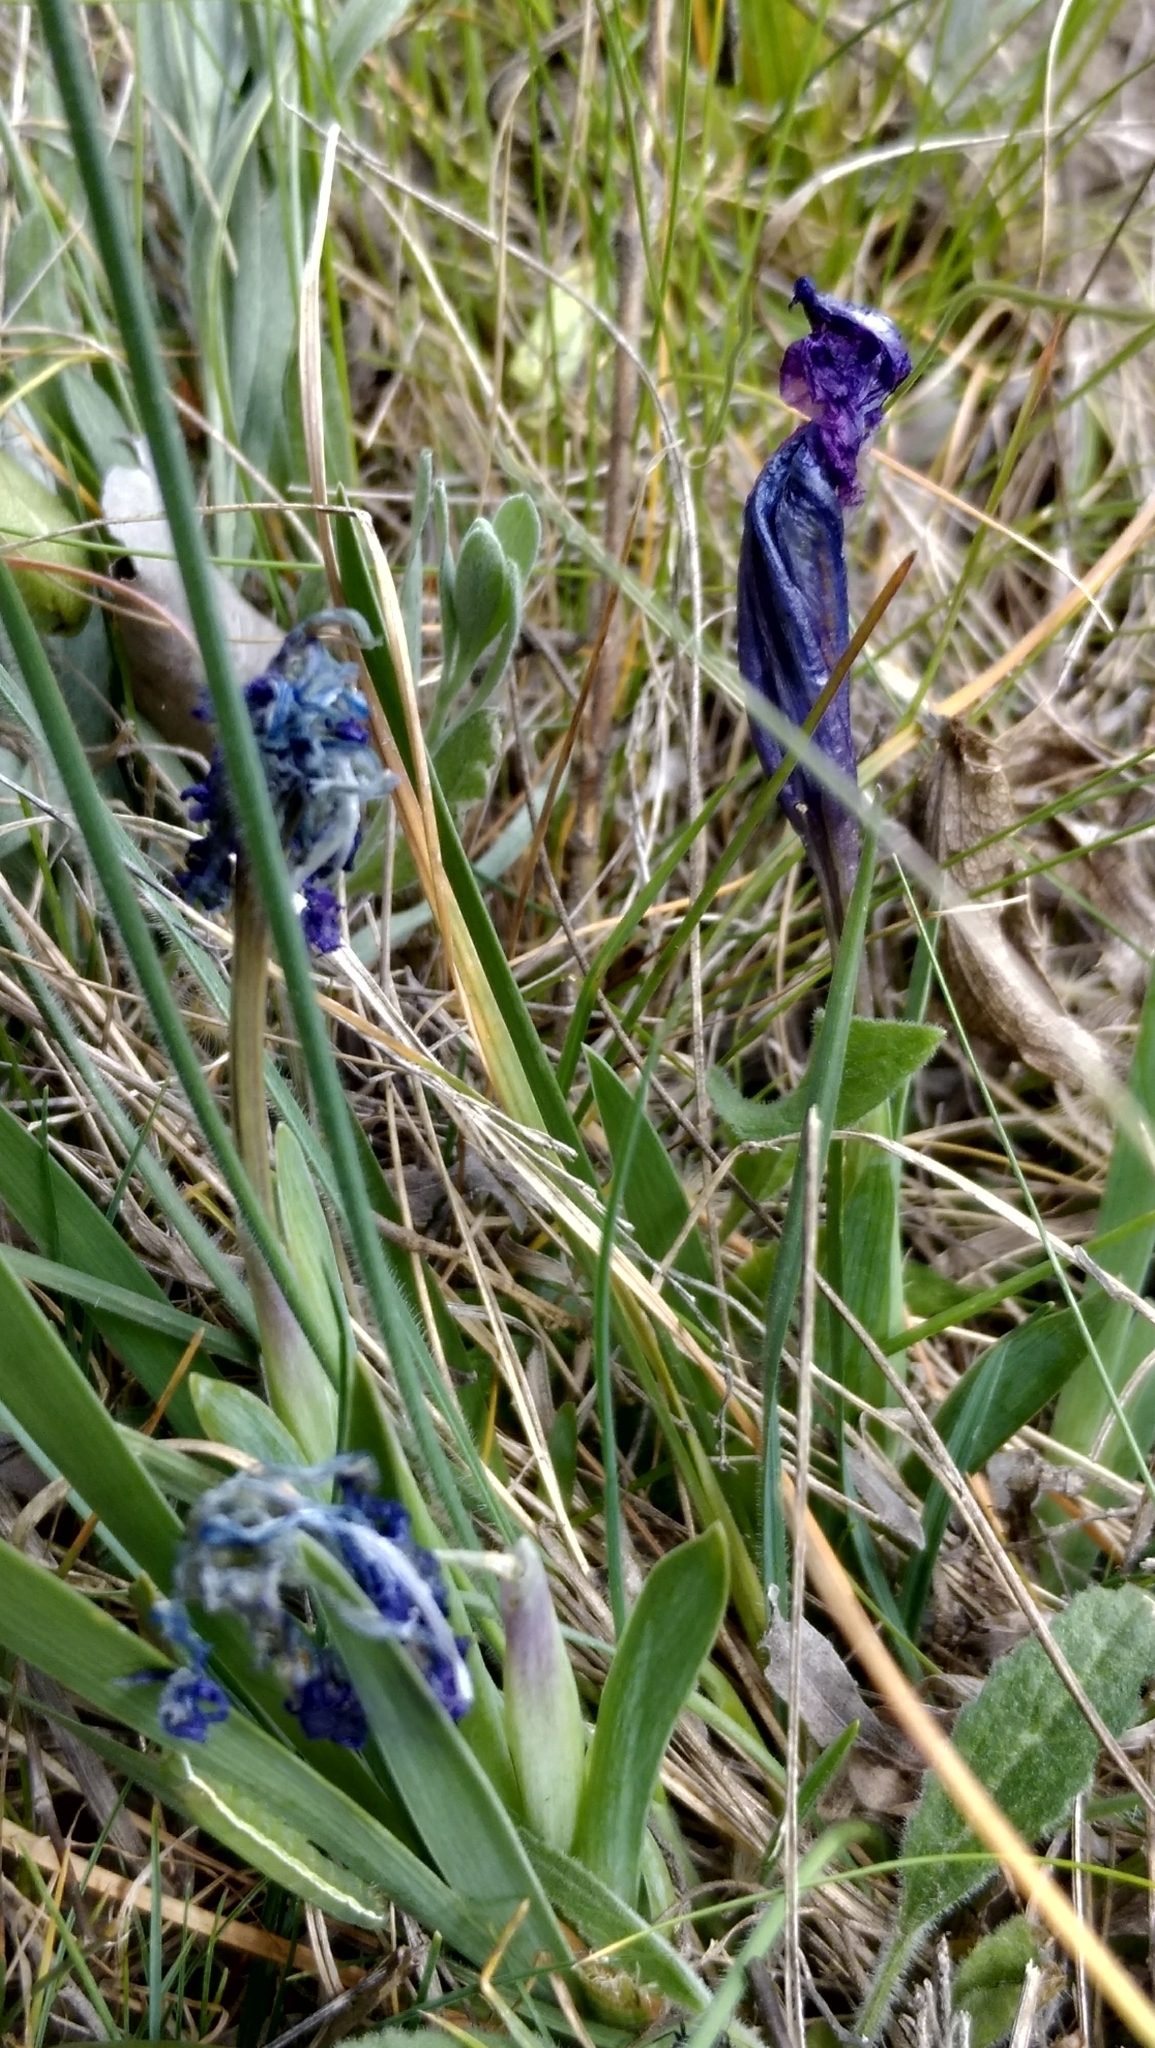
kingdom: Plantae
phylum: Tracheophyta
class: Liliopsida
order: Asparagales
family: Iridaceae
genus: Iris
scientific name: Iris pumila
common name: Dwarf iris
